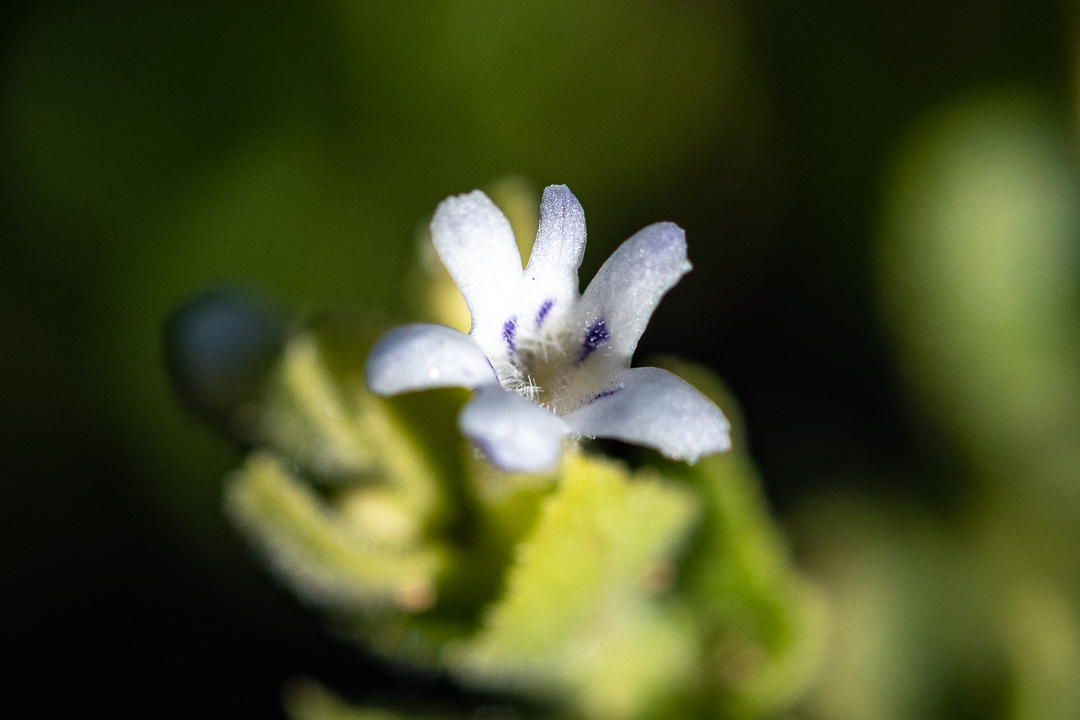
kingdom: Plantae
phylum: Tracheophyta
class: Magnoliopsida
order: Lamiales
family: Scrophulariaceae
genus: Oftia
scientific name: Oftia africana
